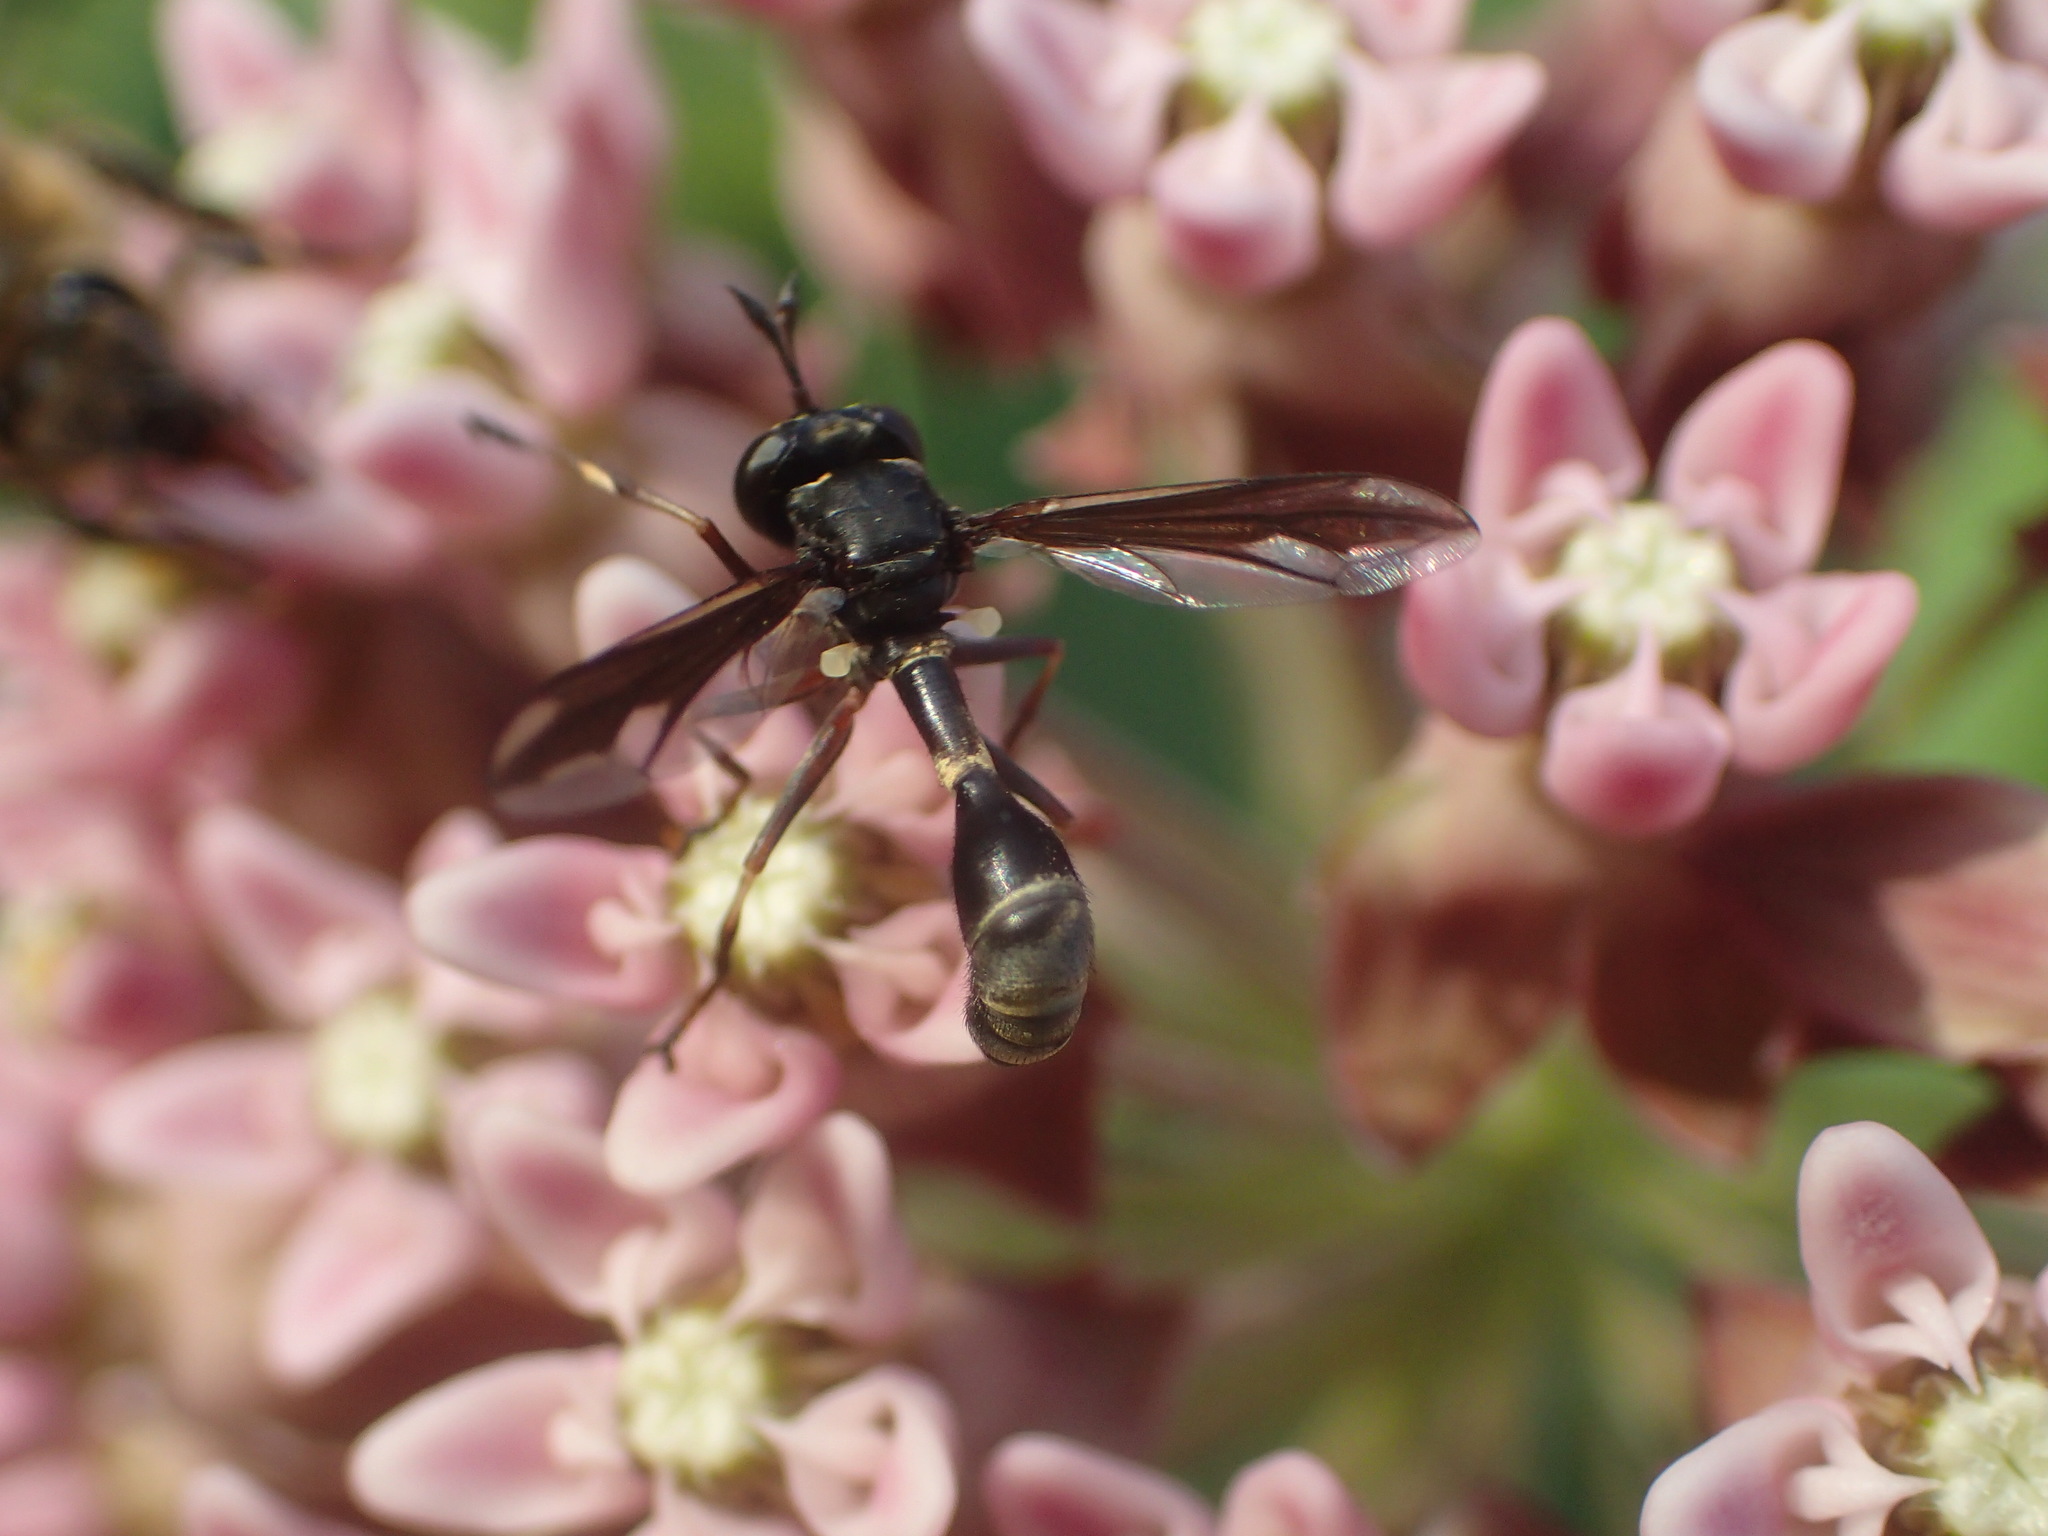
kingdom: Animalia
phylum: Arthropoda
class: Insecta
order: Diptera
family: Conopidae
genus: Physocephala
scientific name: Physocephala furcillata
